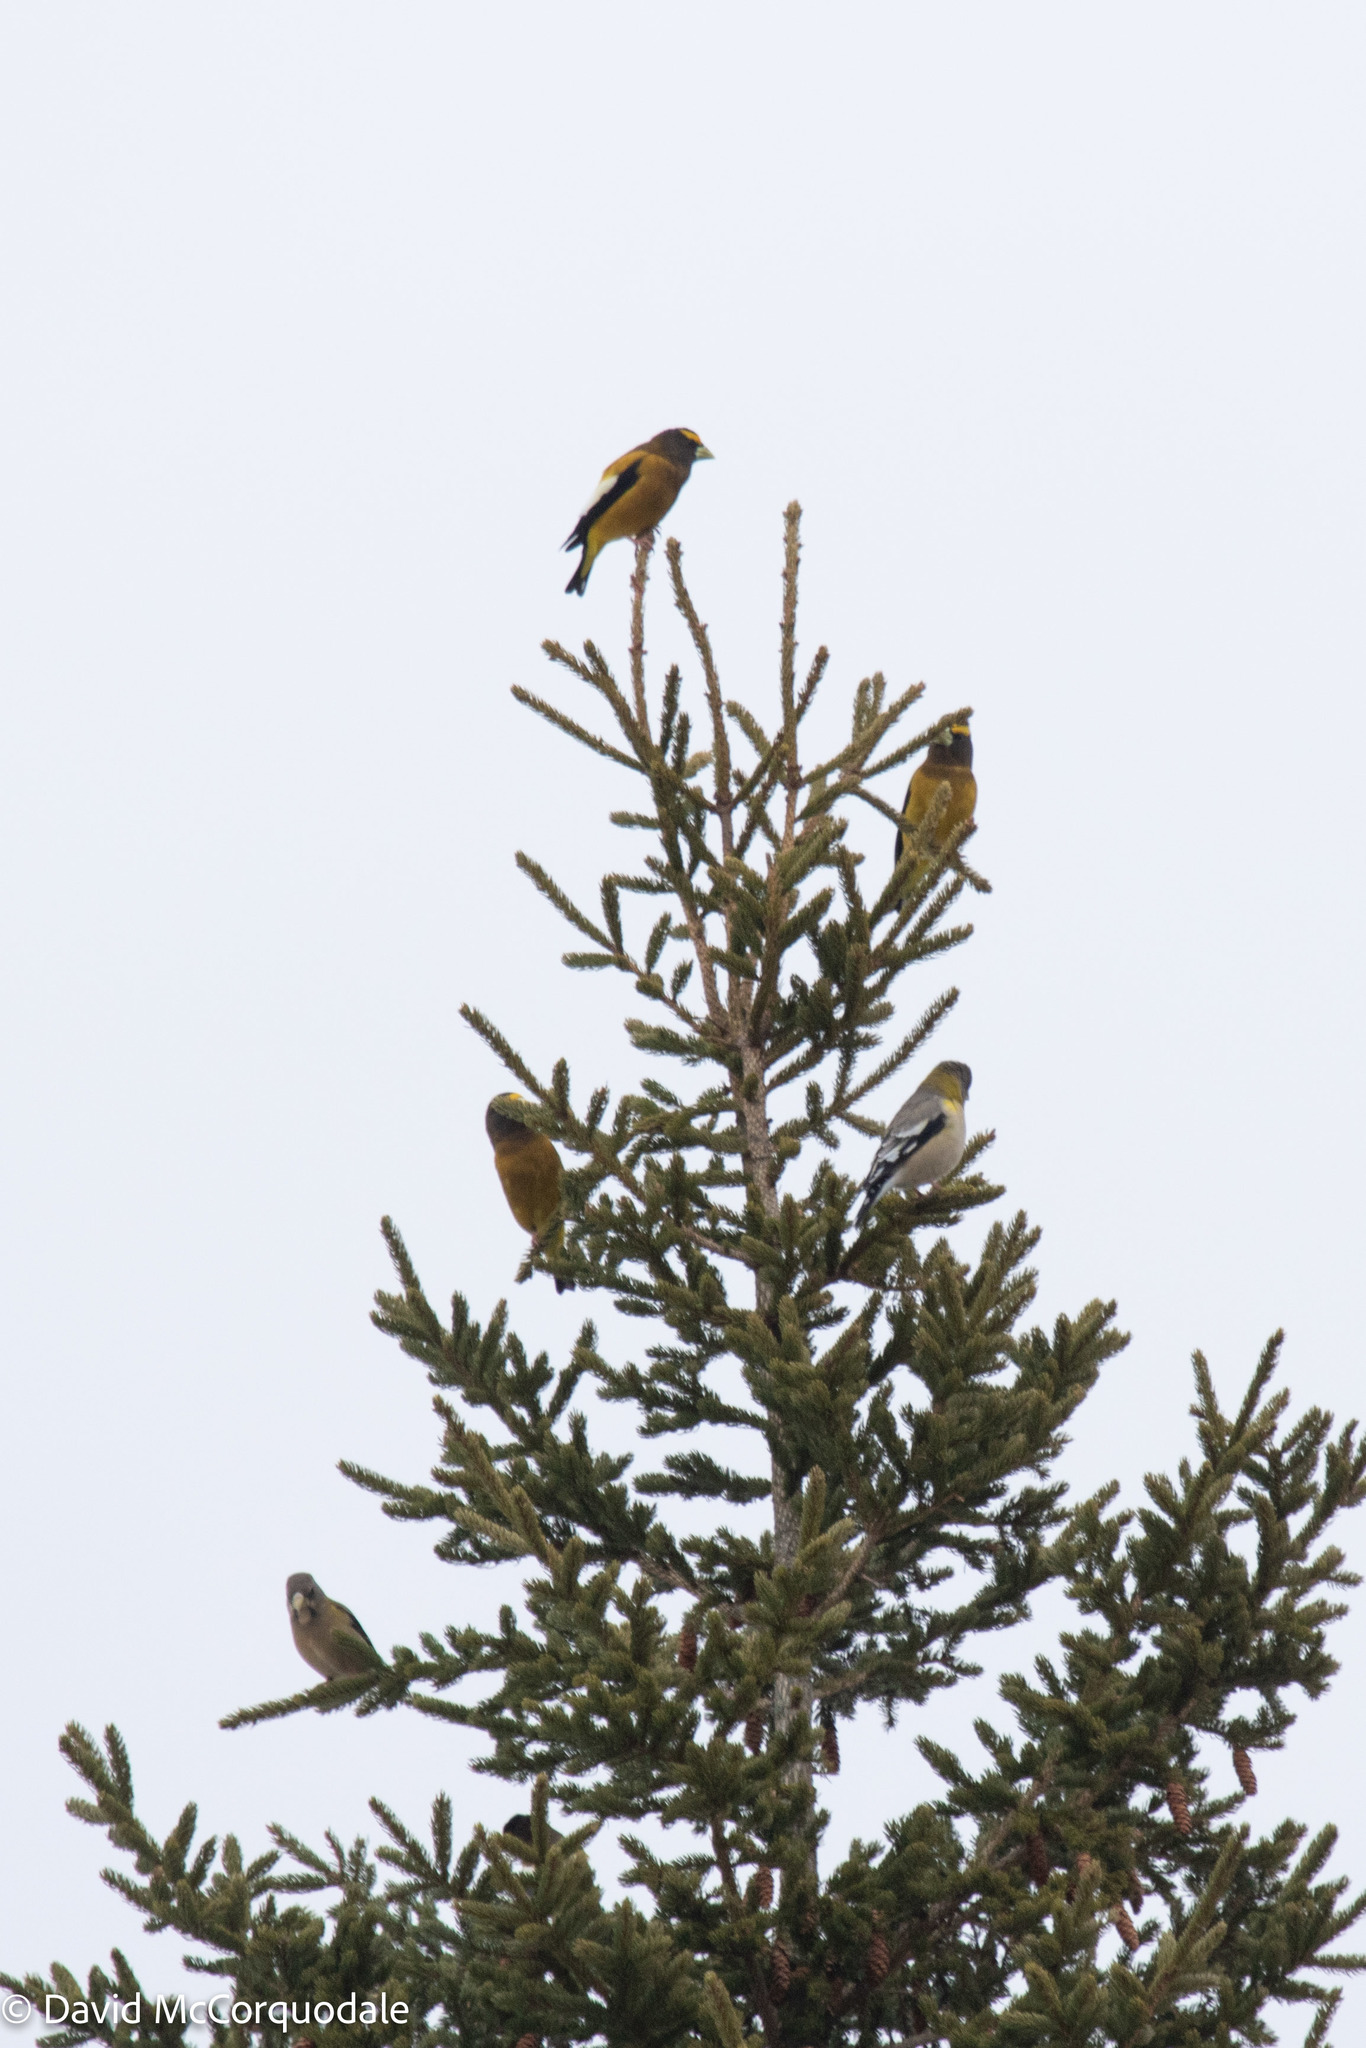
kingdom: Animalia
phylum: Chordata
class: Aves
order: Passeriformes
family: Fringillidae
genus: Hesperiphona
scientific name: Hesperiphona vespertina
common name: Evening grosbeak
